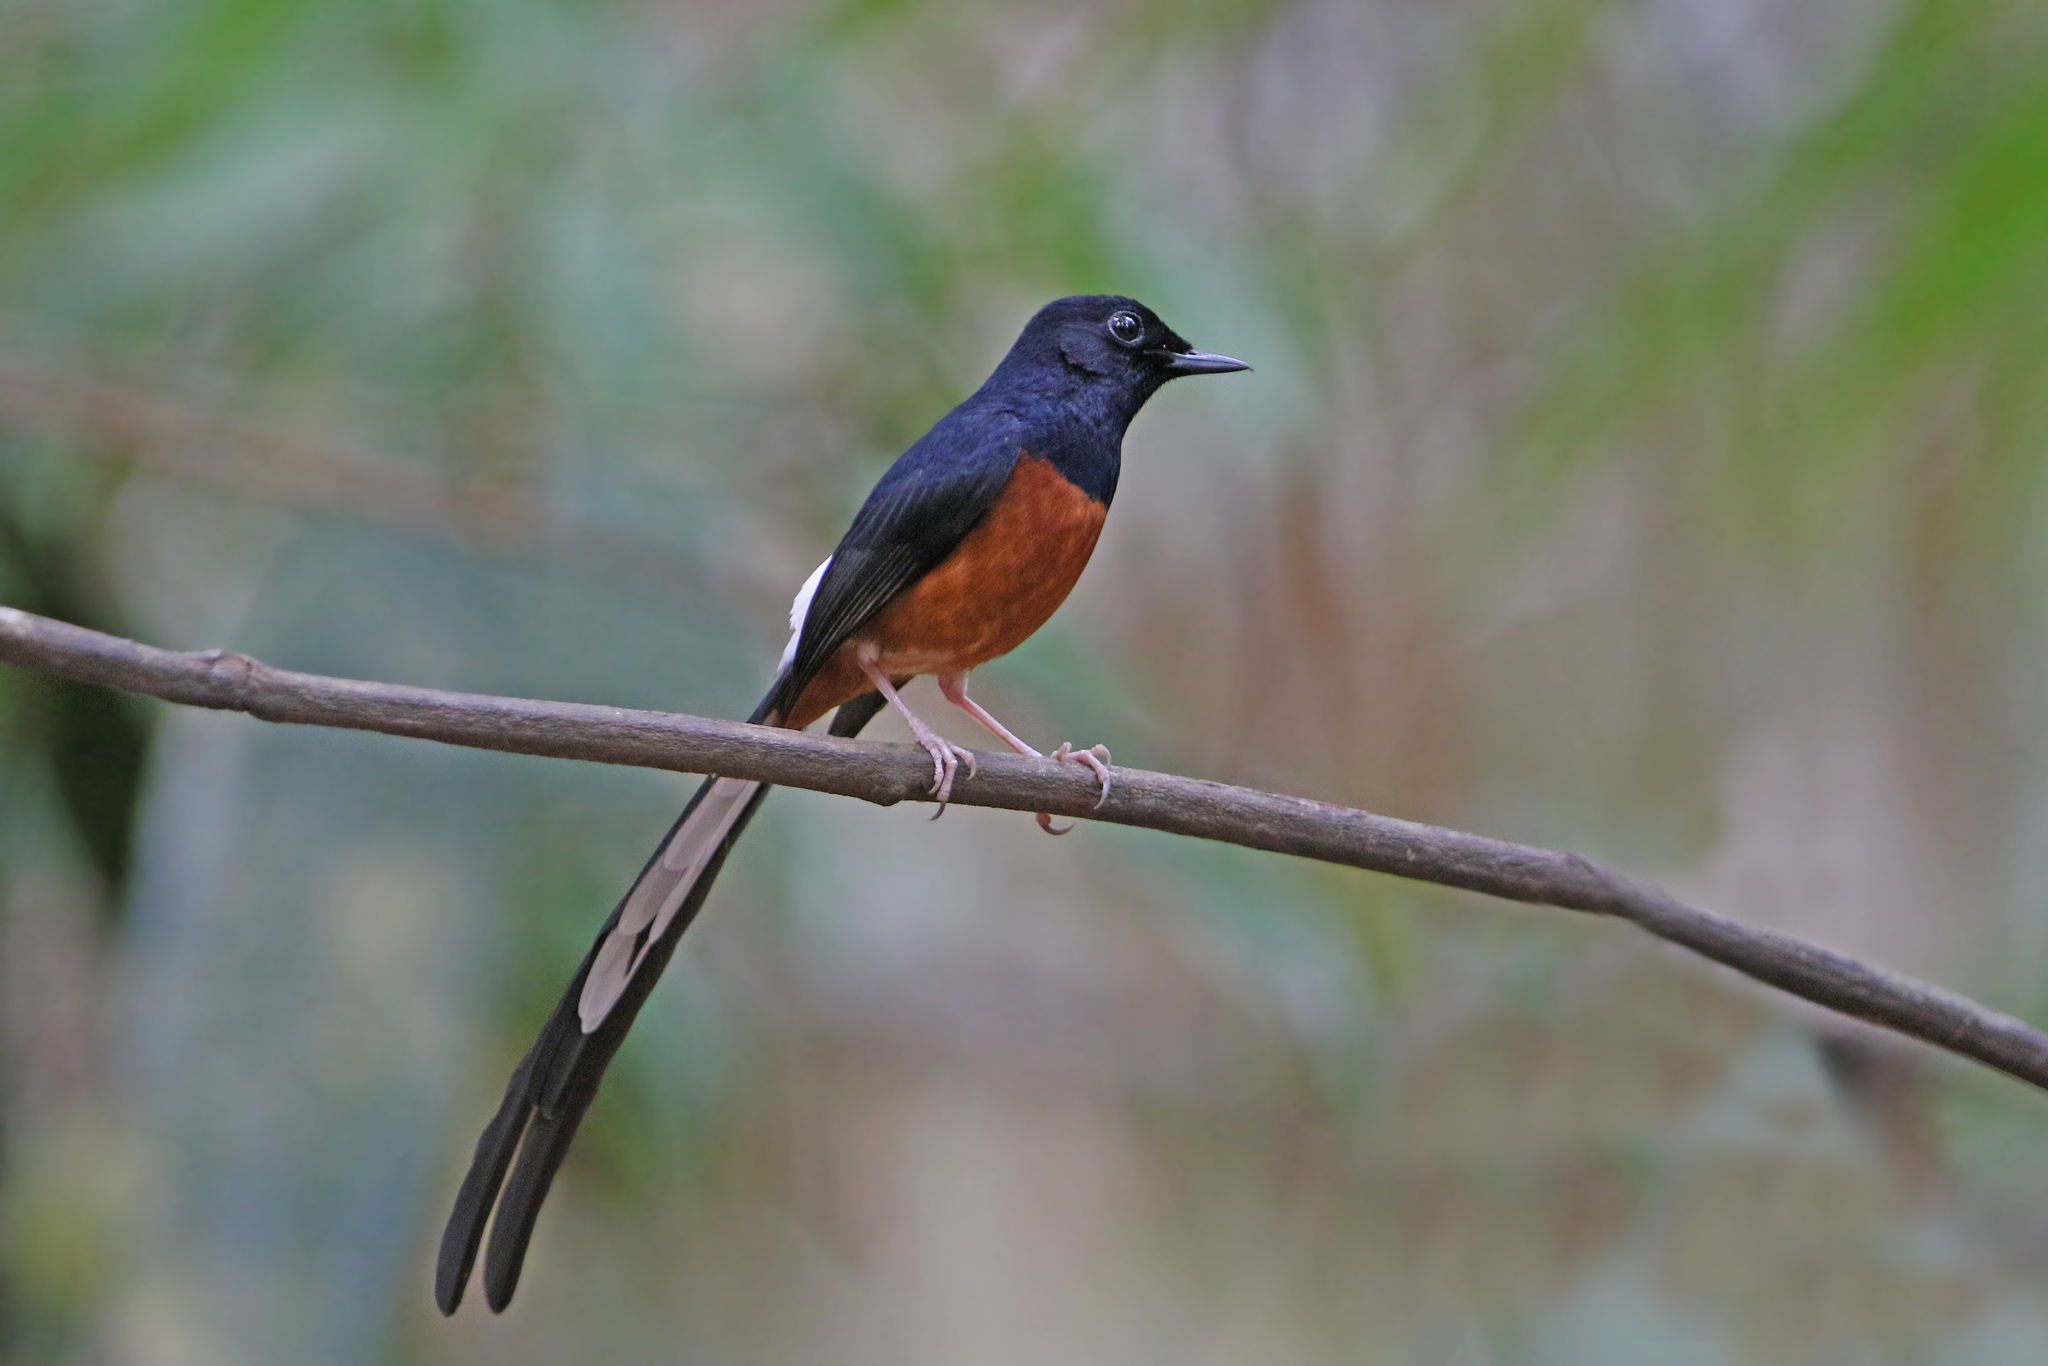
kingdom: Animalia
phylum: Chordata
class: Aves
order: Passeriformes
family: Muscicapidae
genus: Copsychus
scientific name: Copsychus malabaricus
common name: White-rumped shama
